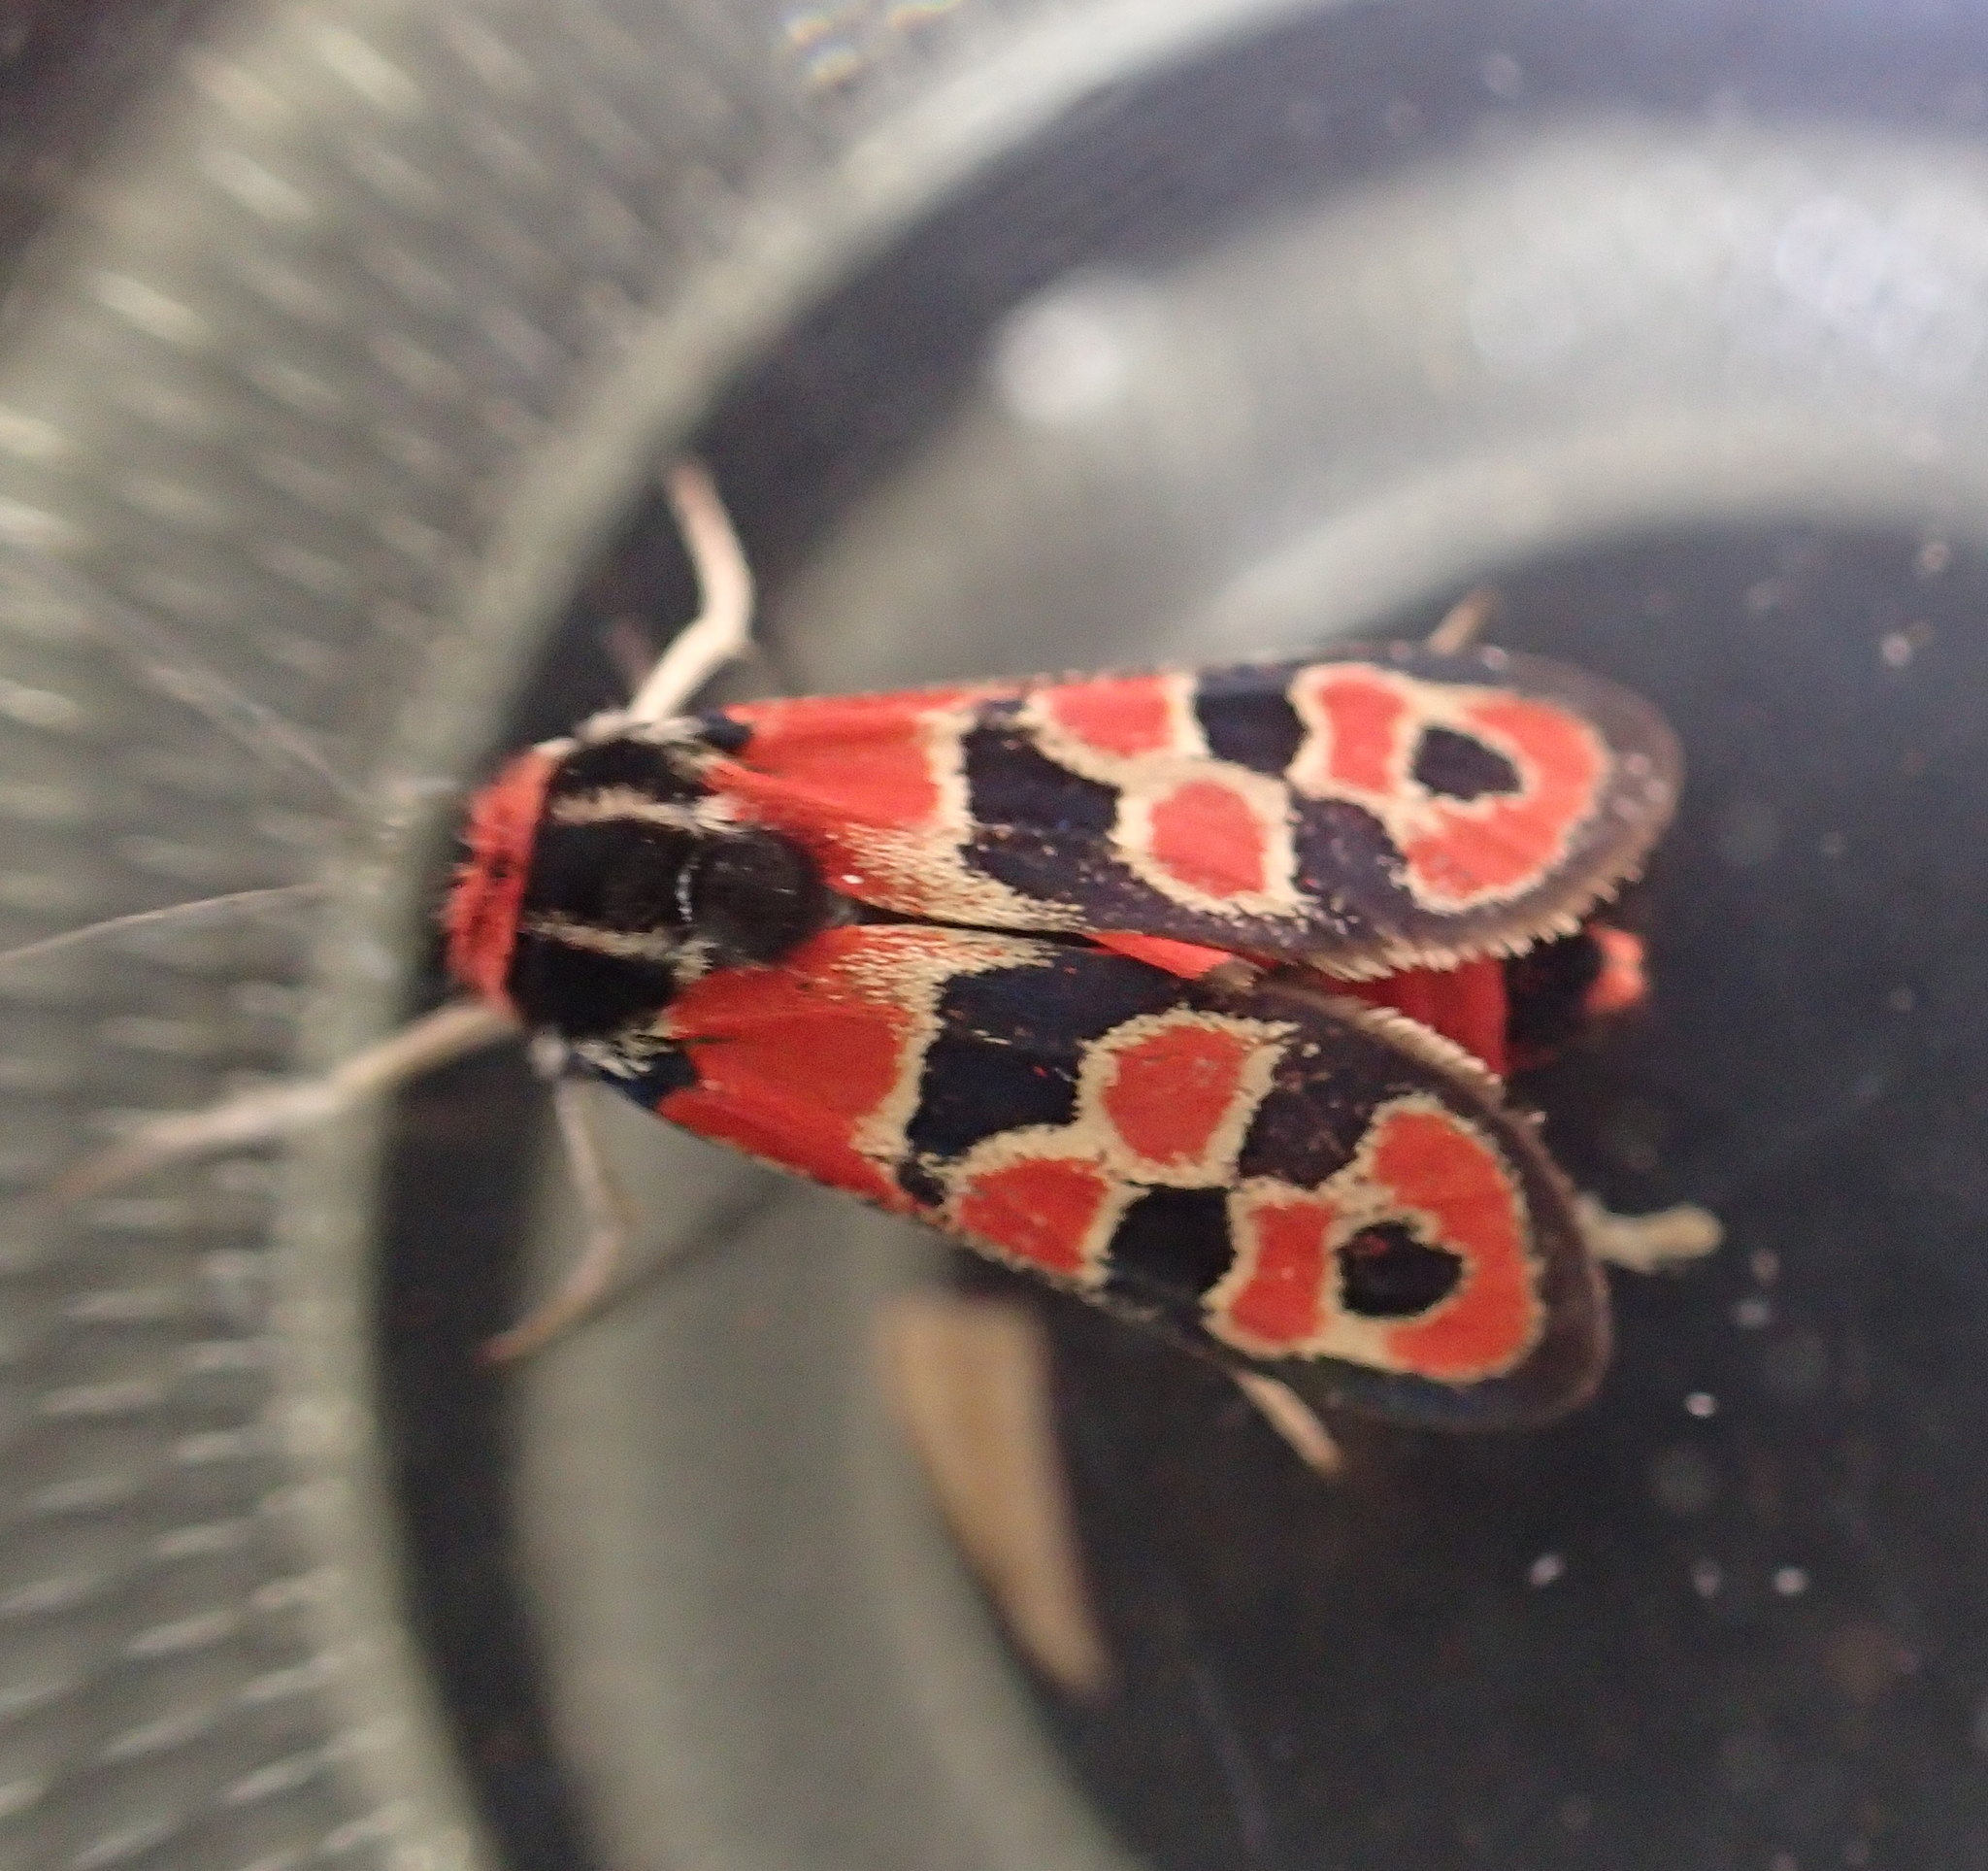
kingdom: Animalia
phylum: Arthropoda
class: Insecta
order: Lepidoptera
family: Zygaenidae
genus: Zygaena
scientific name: Zygaena fausta
